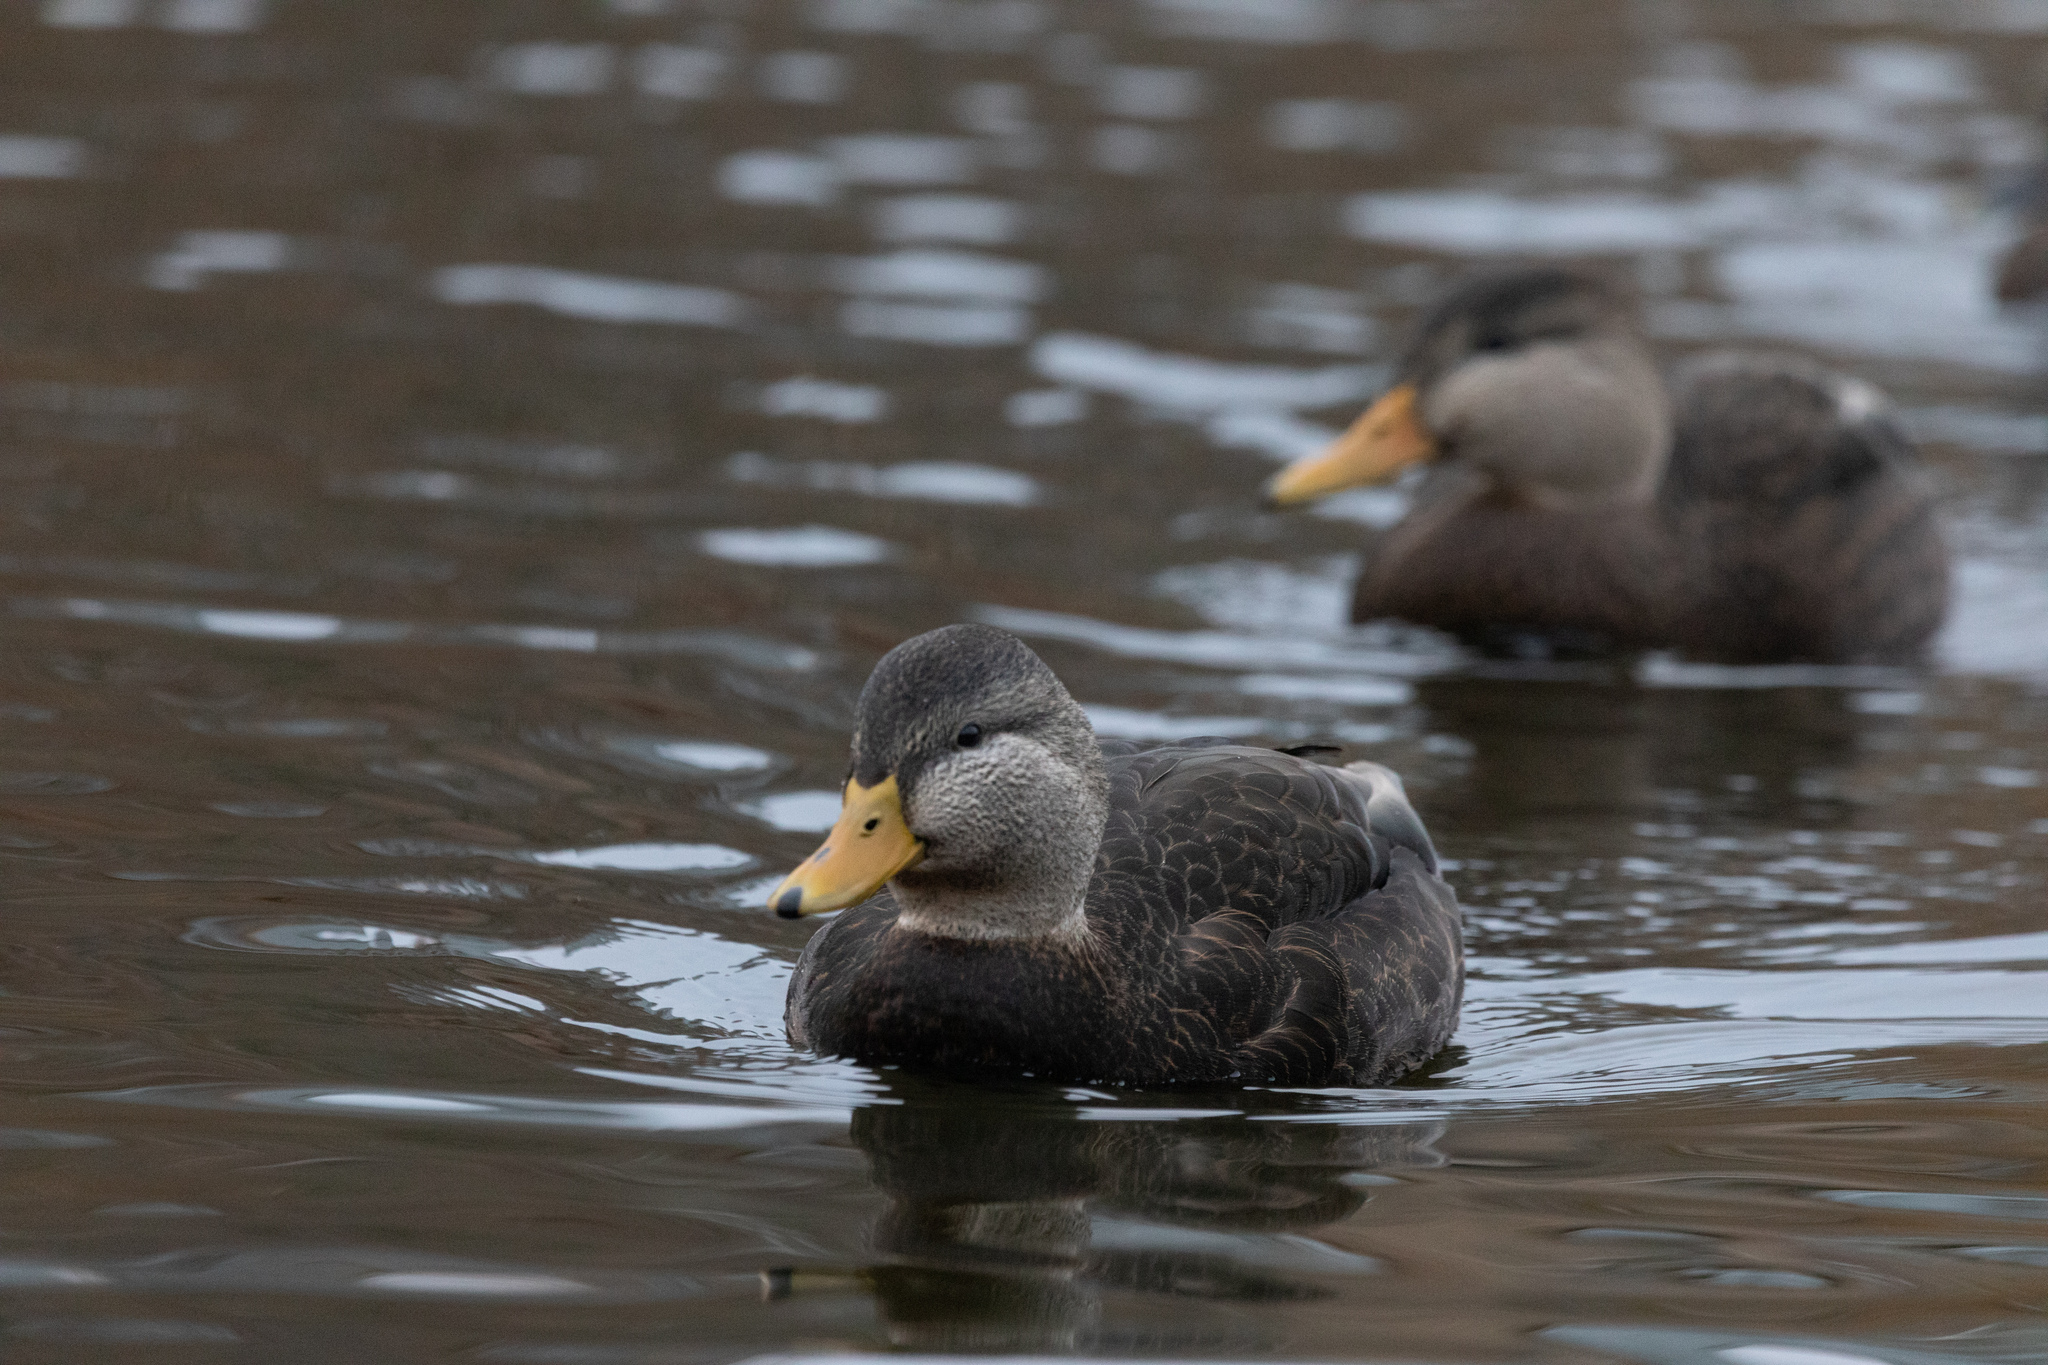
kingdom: Animalia
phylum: Chordata
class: Aves
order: Anseriformes
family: Anatidae
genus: Anas
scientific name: Anas rubripes
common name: American black duck
